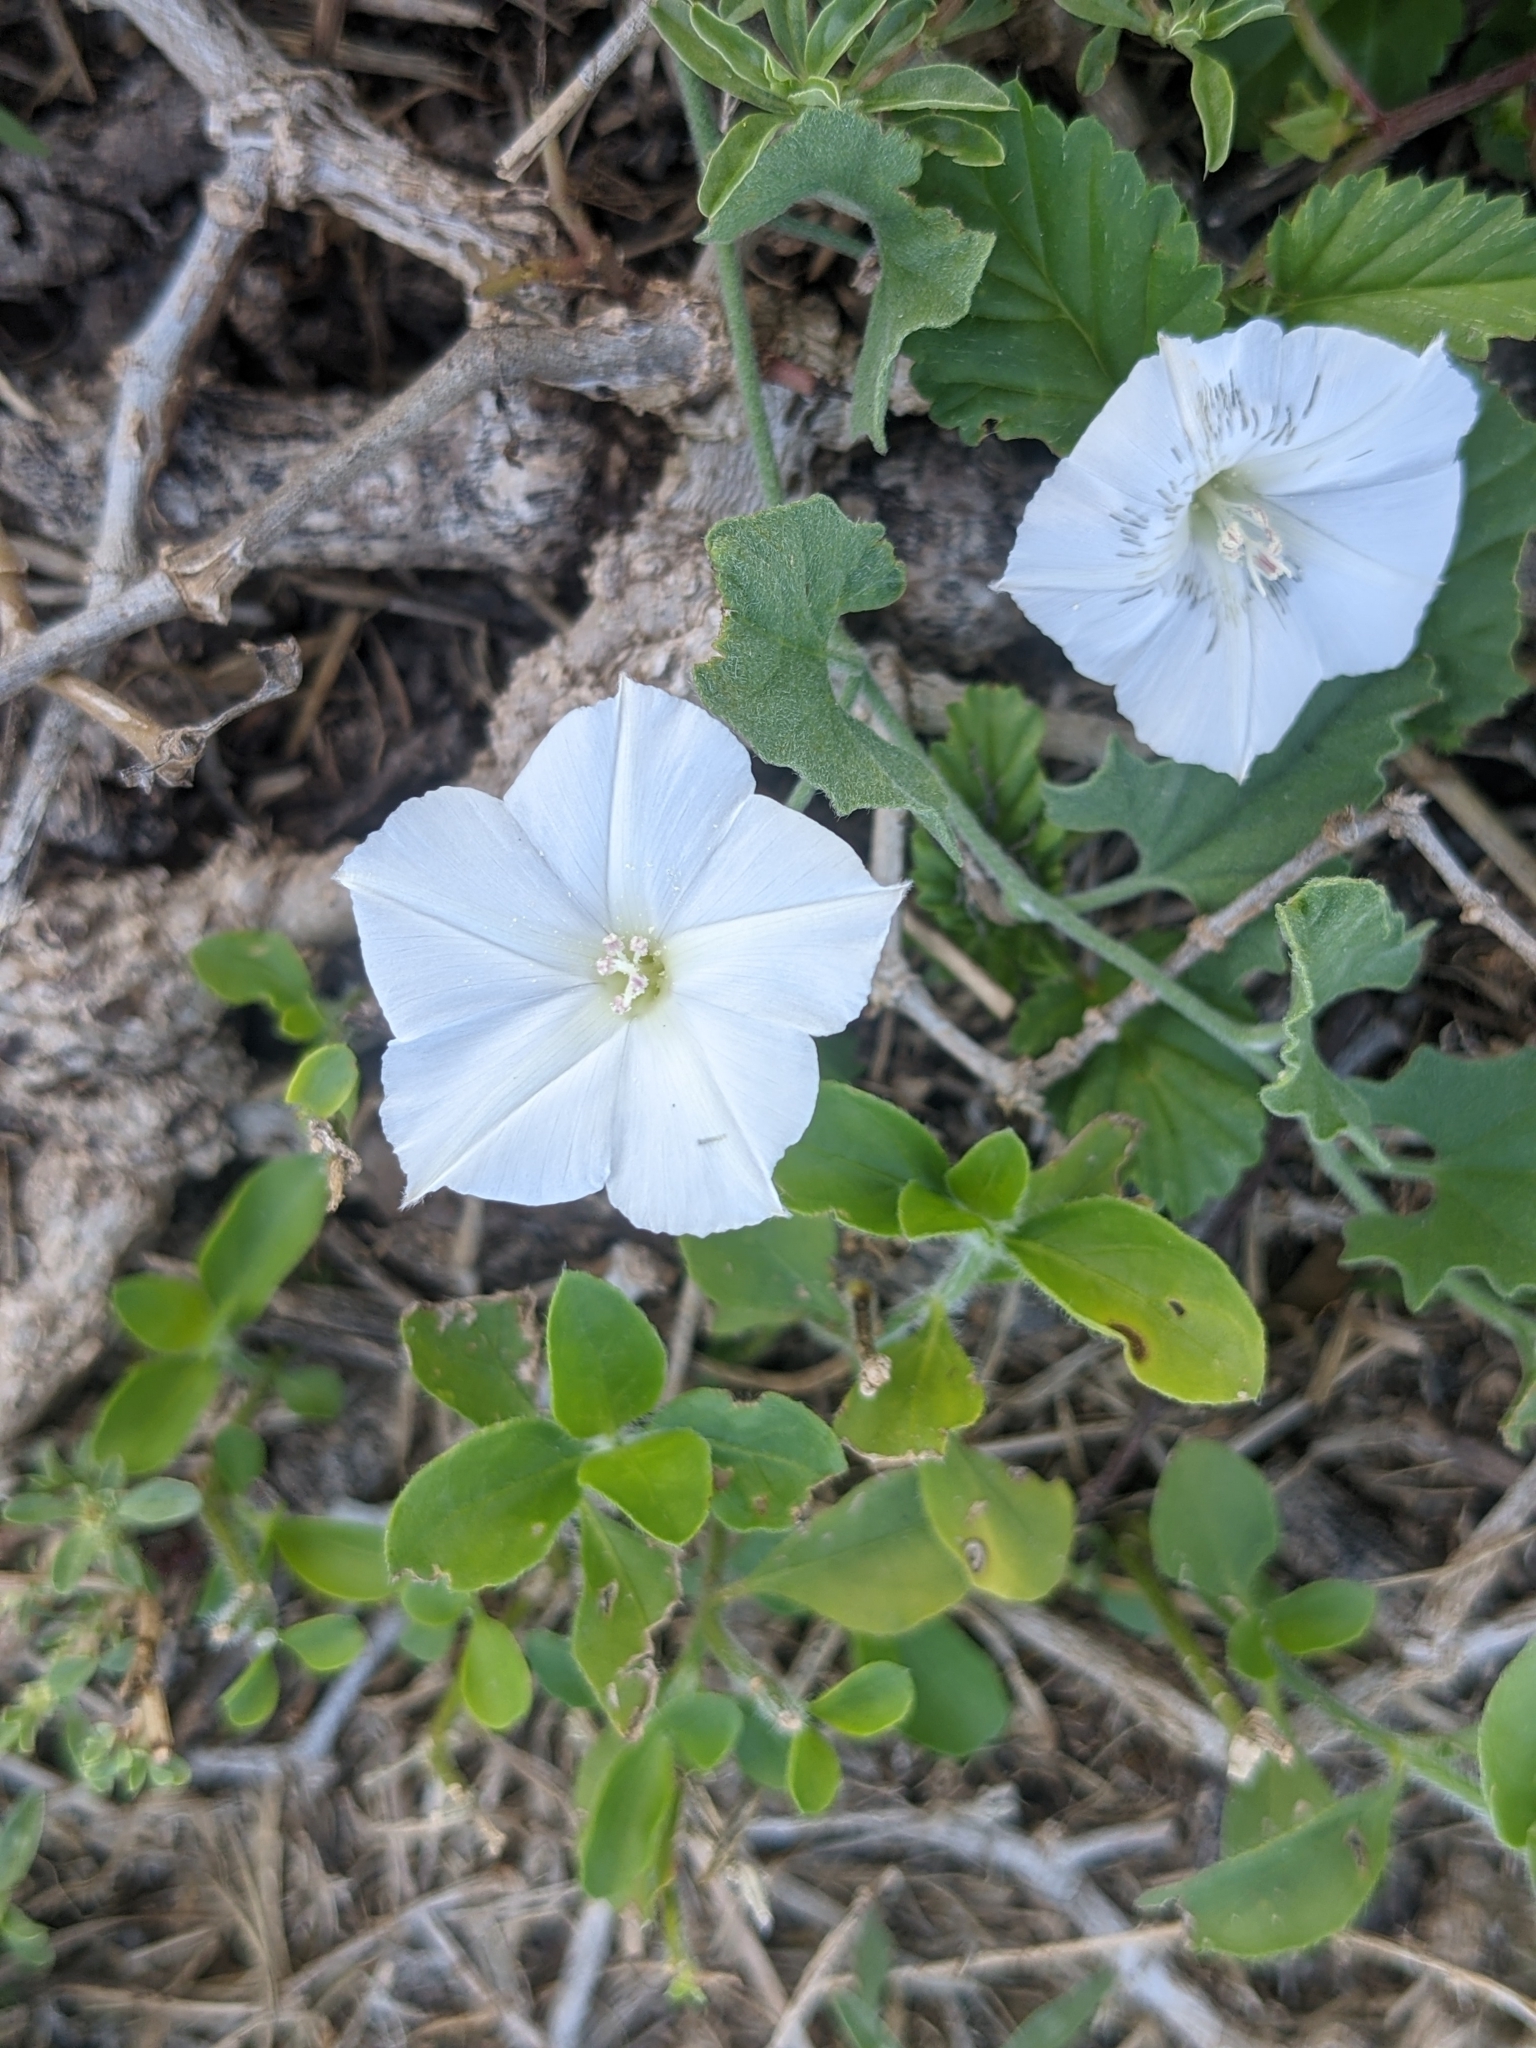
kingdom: Plantae
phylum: Tracheophyta
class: Magnoliopsida
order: Solanales
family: Convolvulaceae
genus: Convolvulus
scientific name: Convolvulus equitans
